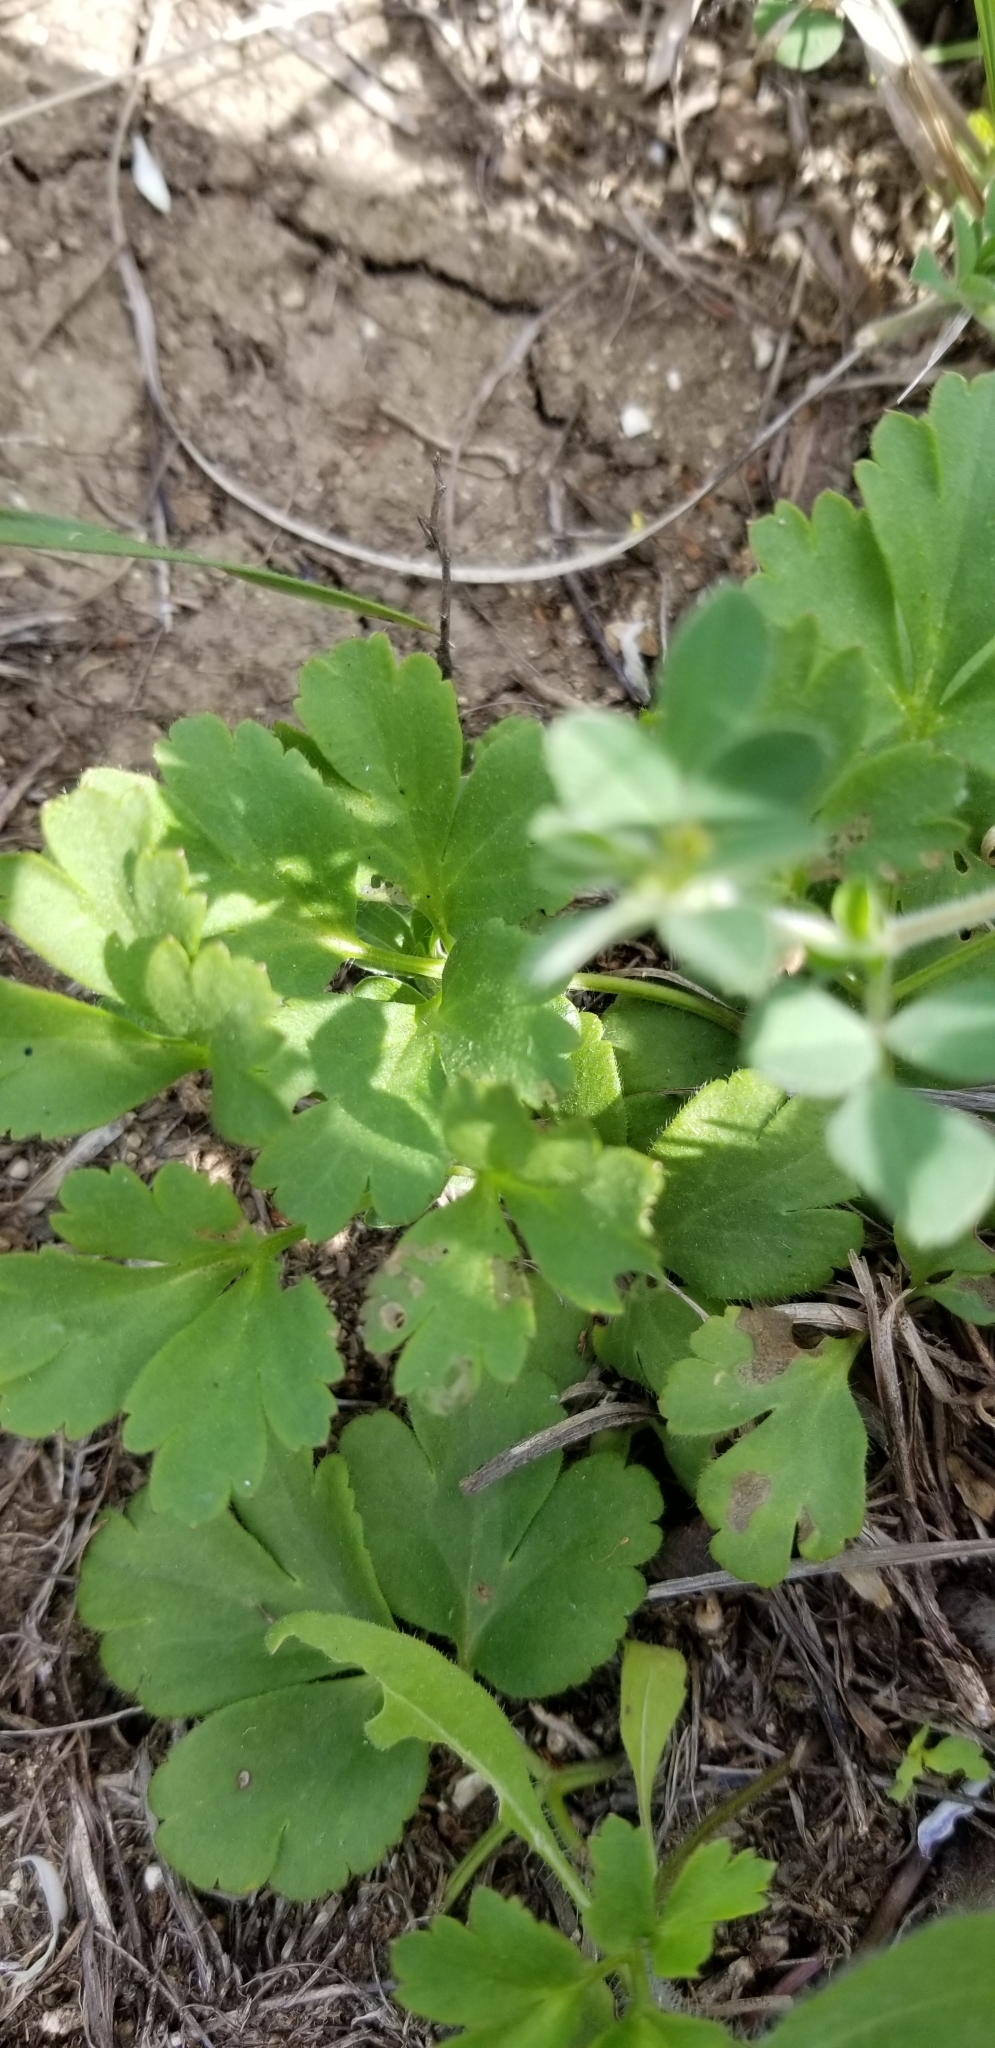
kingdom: Plantae
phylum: Tracheophyta
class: Magnoliopsida
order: Ranunculales
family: Ranunculaceae
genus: Anemone
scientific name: Anemone berlandieri
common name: Ten-petal anemone
